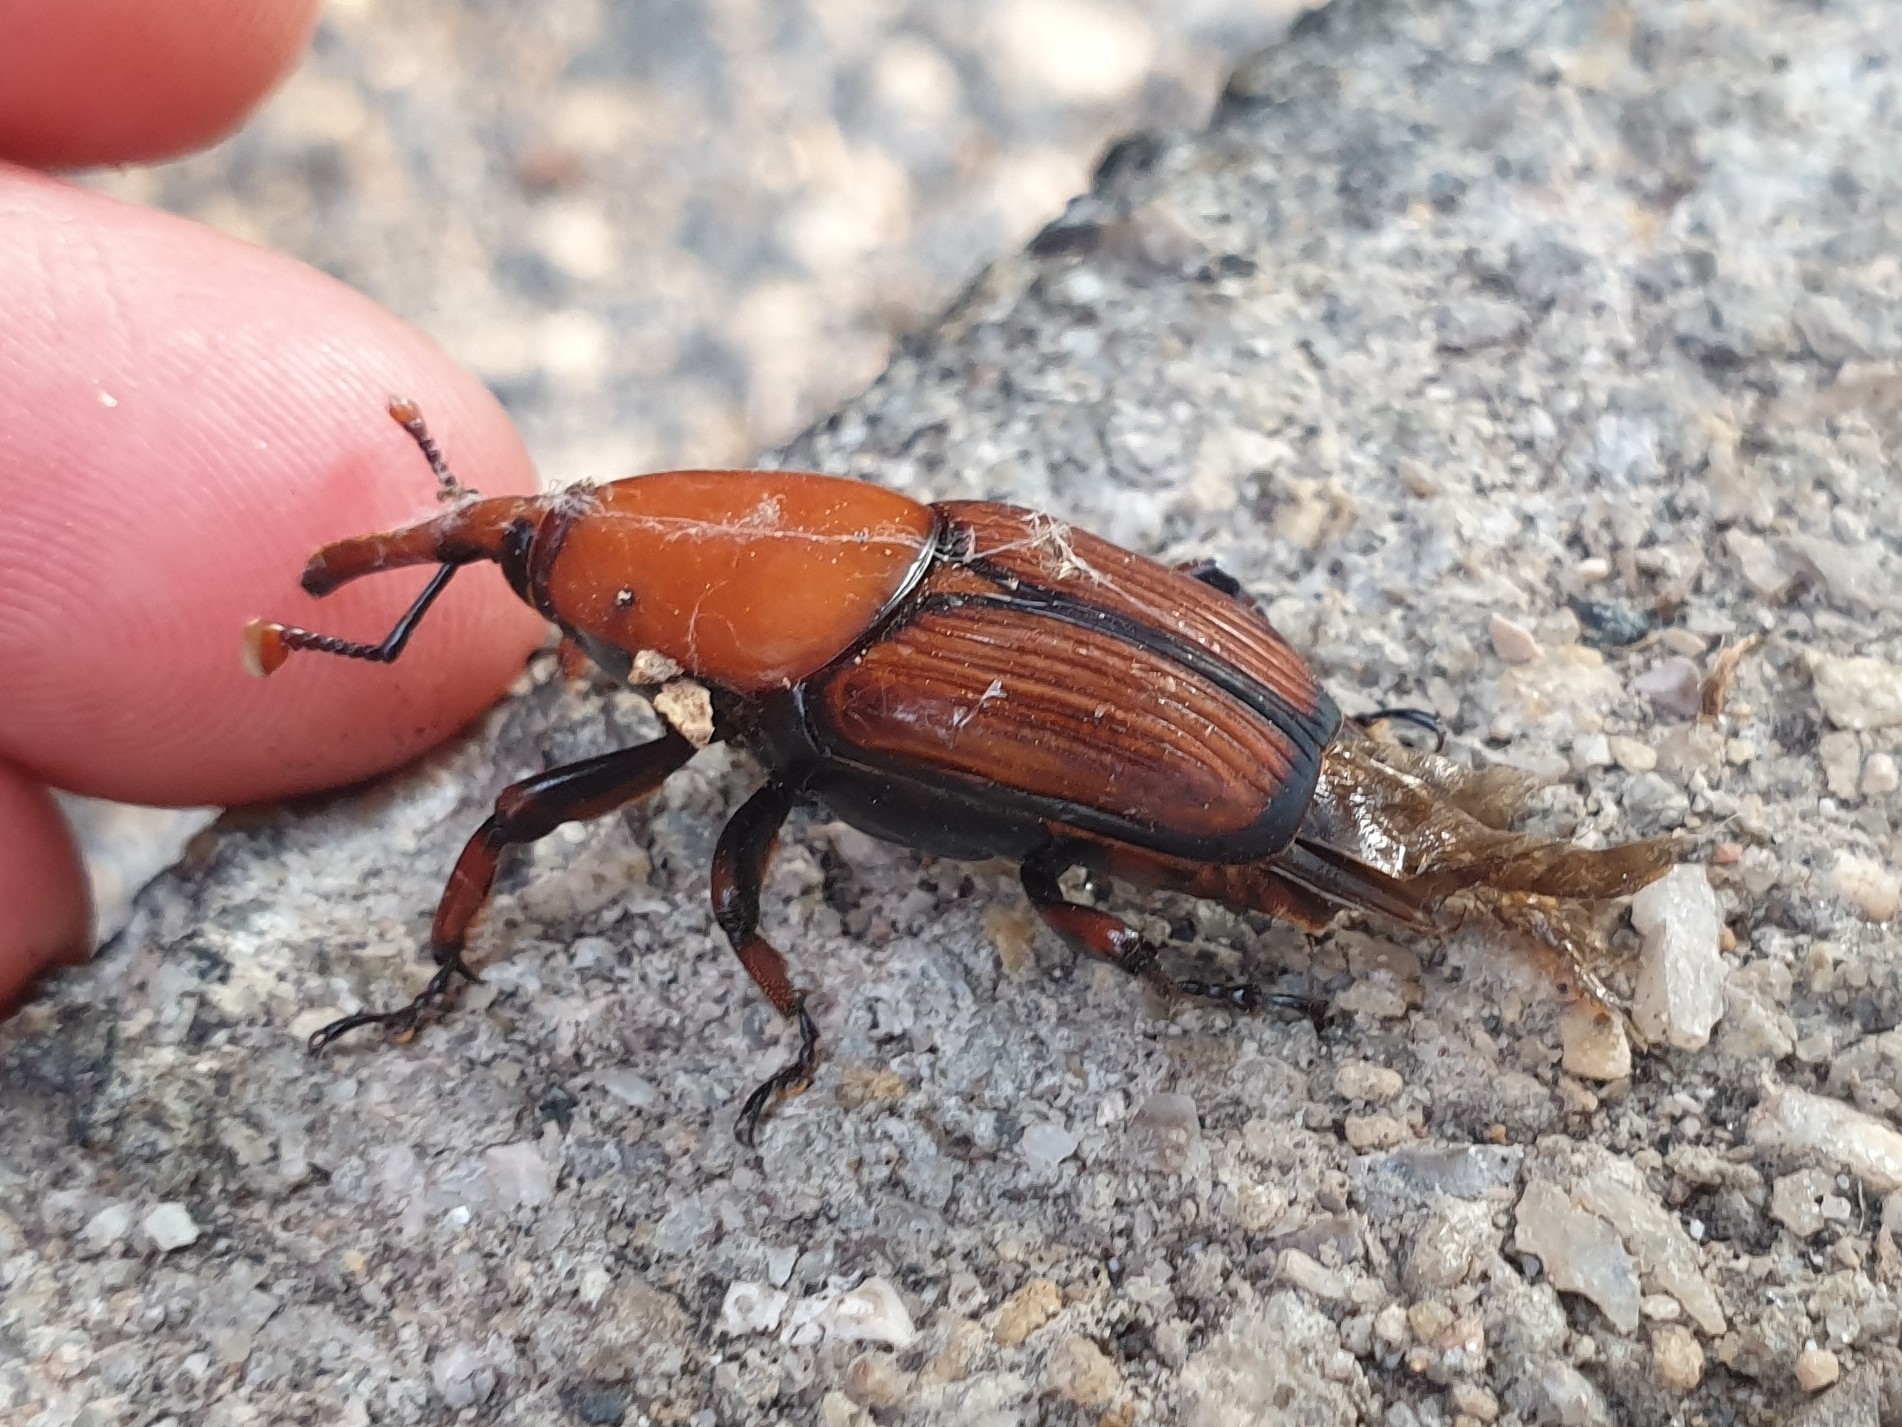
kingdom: Animalia
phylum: Arthropoda
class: Insecta
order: Coleoptera
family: Dryophthoridae
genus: Rhynchophorus
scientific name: Rhynchophorus ferrugineus
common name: Red palm weevil
